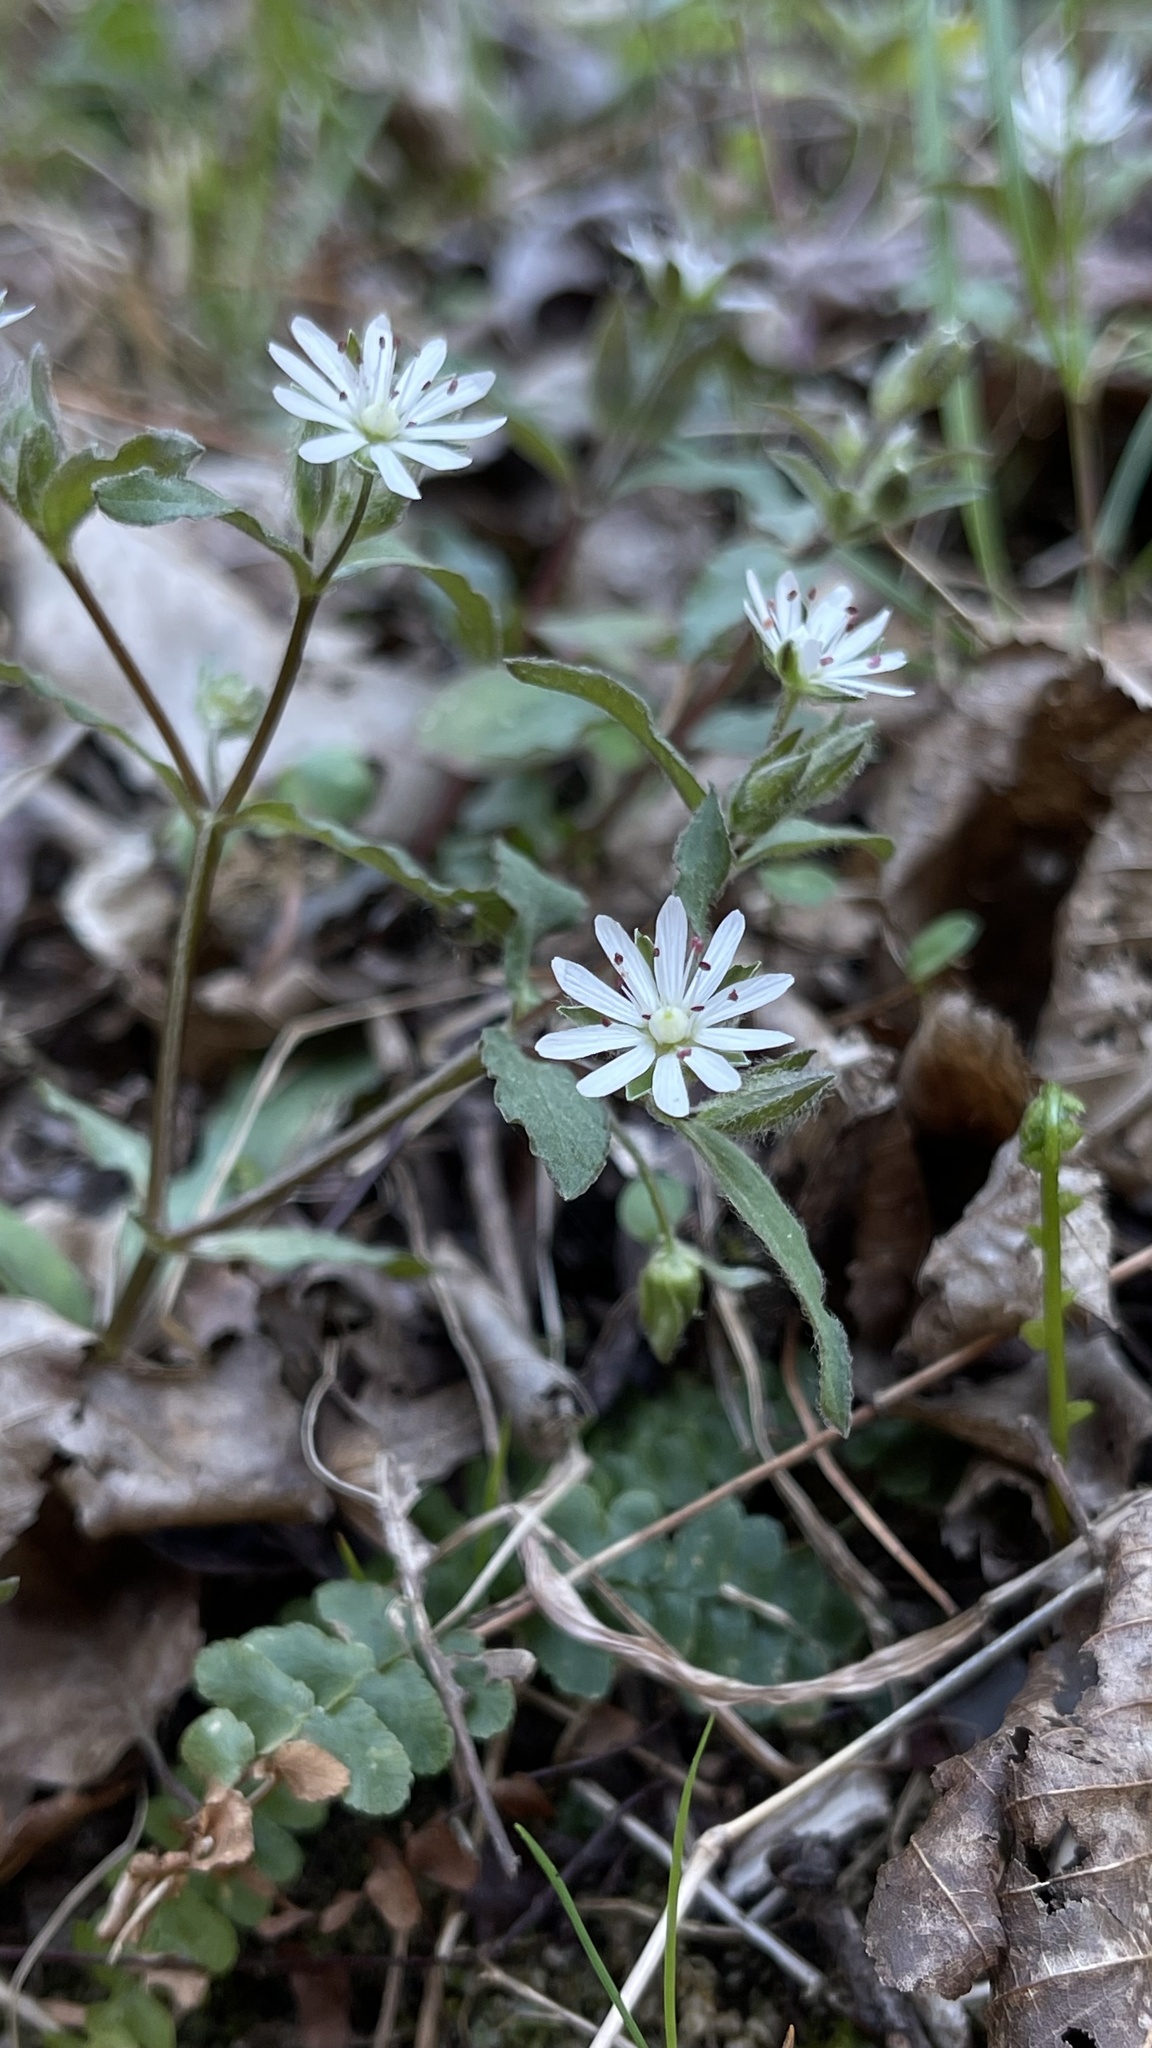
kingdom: Plantae
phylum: Tracheophyta
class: Magnoliopsida
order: Caryophyllales
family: Caryophyllaceae
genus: Stellaria
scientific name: Stellaria pubera
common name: Star chickweed
